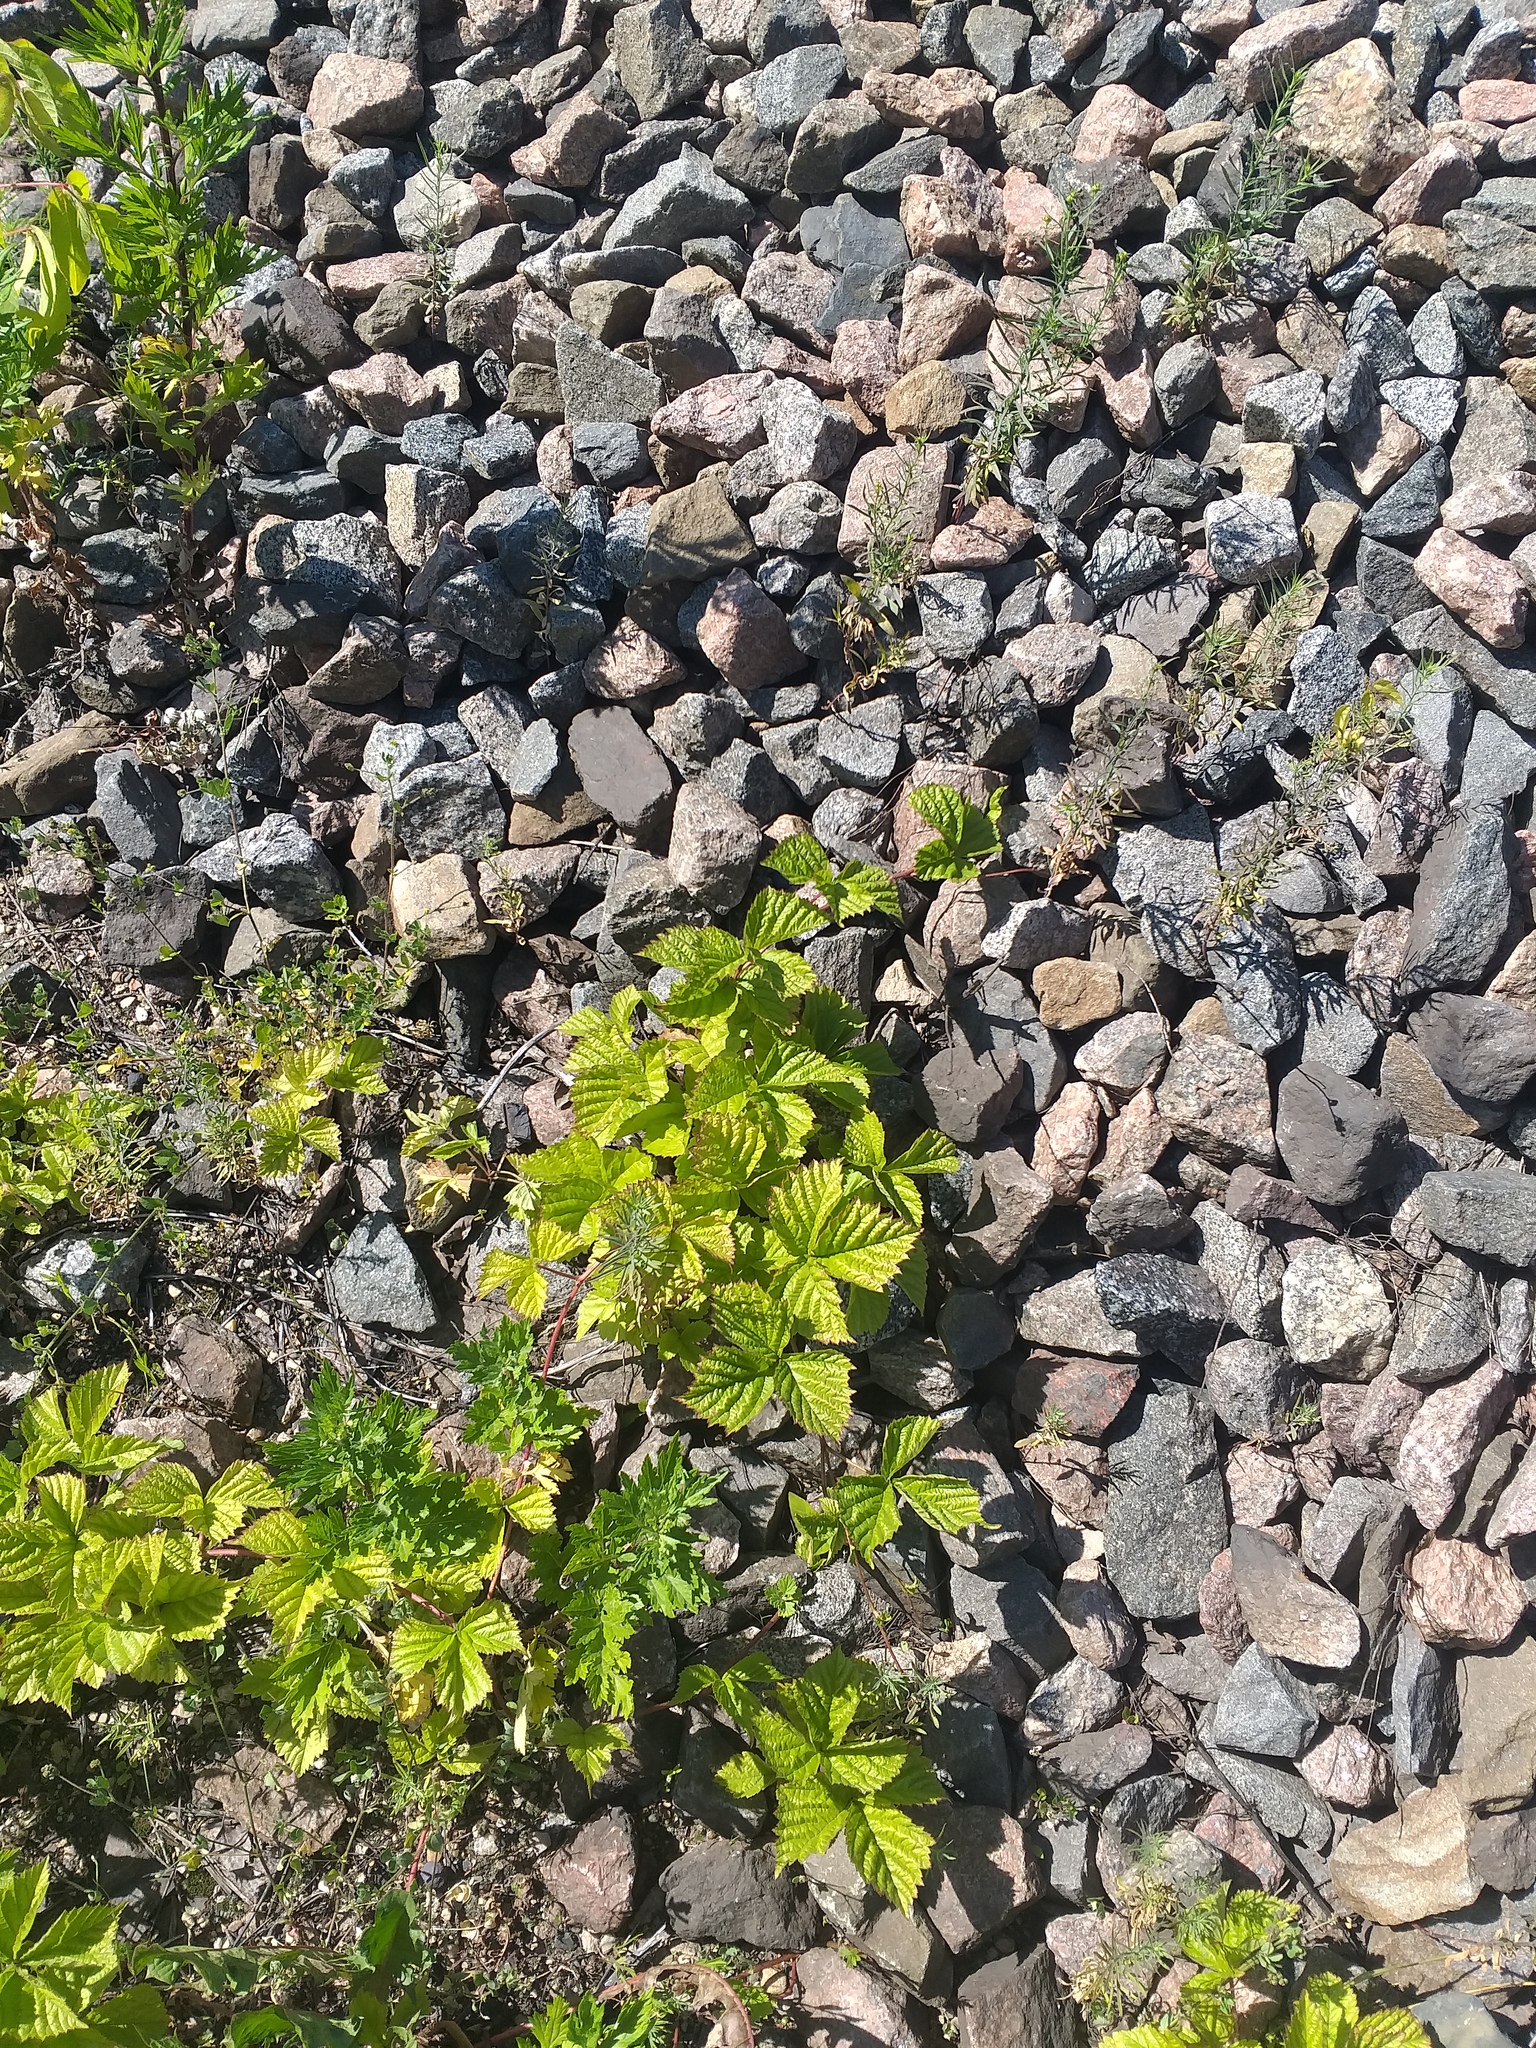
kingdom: Plantae
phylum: Tracheophyta
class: Magnoliopsida
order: Rosales
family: Rosaceae
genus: Rubus
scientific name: Rubus saxatilis
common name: Stone bramble
